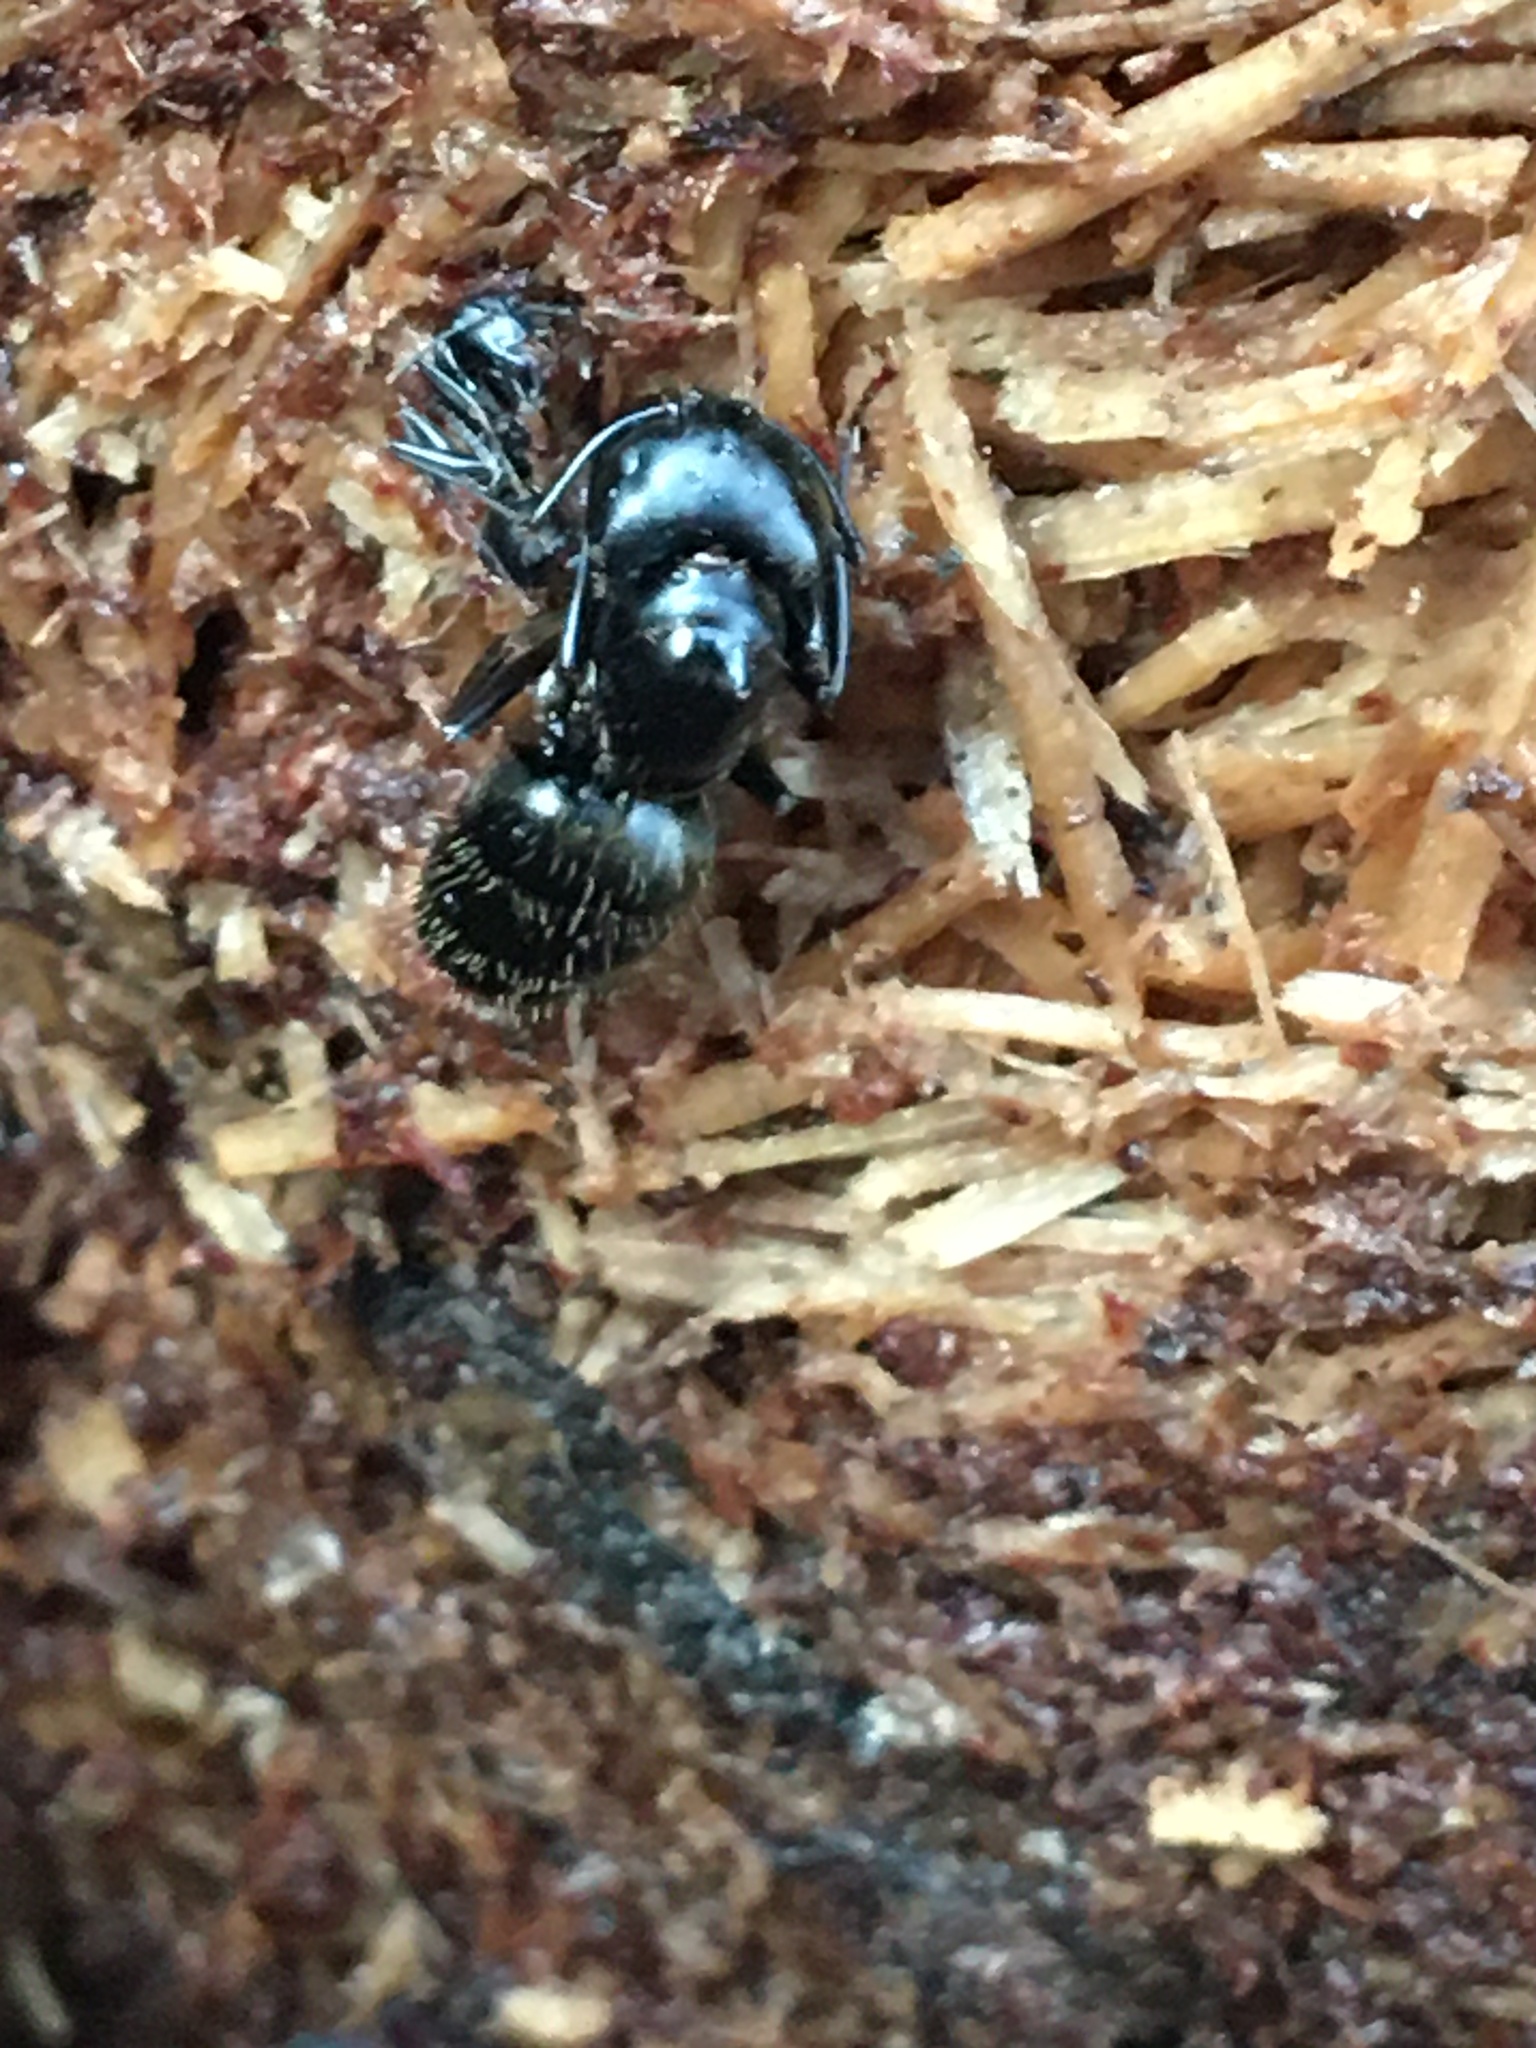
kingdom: Animalia
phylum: Arthropoda
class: Insecta
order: Hymenoptera
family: Formicidae
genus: Camponotus
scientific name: Camponotus pennsylvanicus
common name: Black carpenter ant
